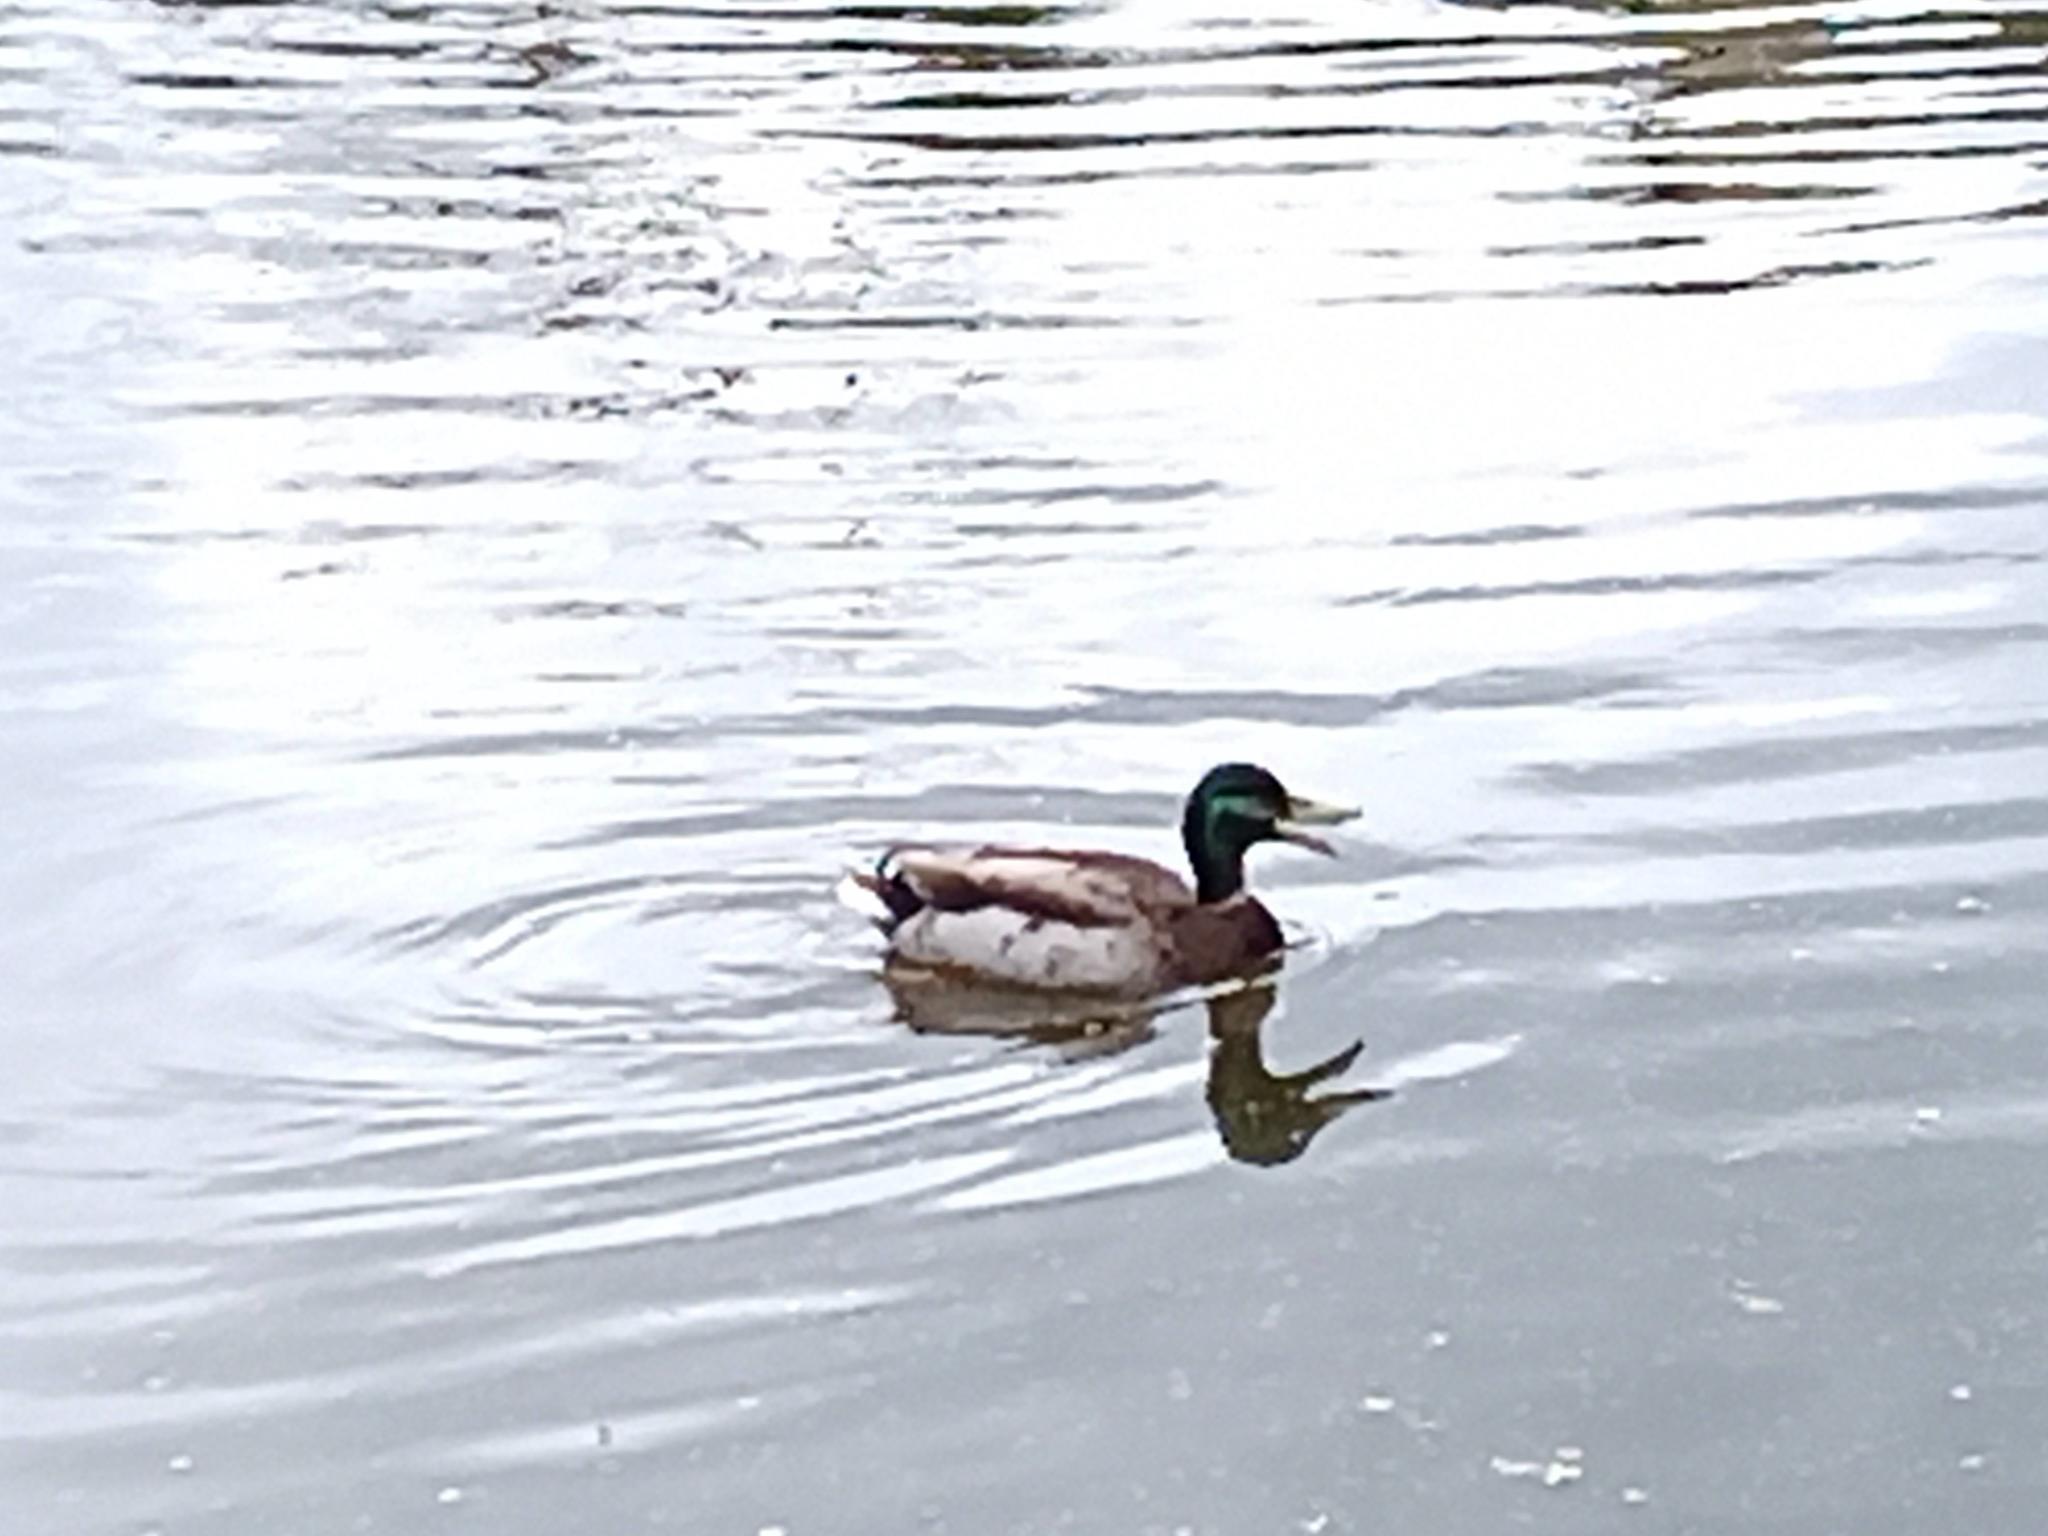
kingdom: Animalia
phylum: Chordata
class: Aves
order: Anseriformes
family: Anatidae
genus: Anas
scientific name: Anas platyrhynchos
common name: Mallard
